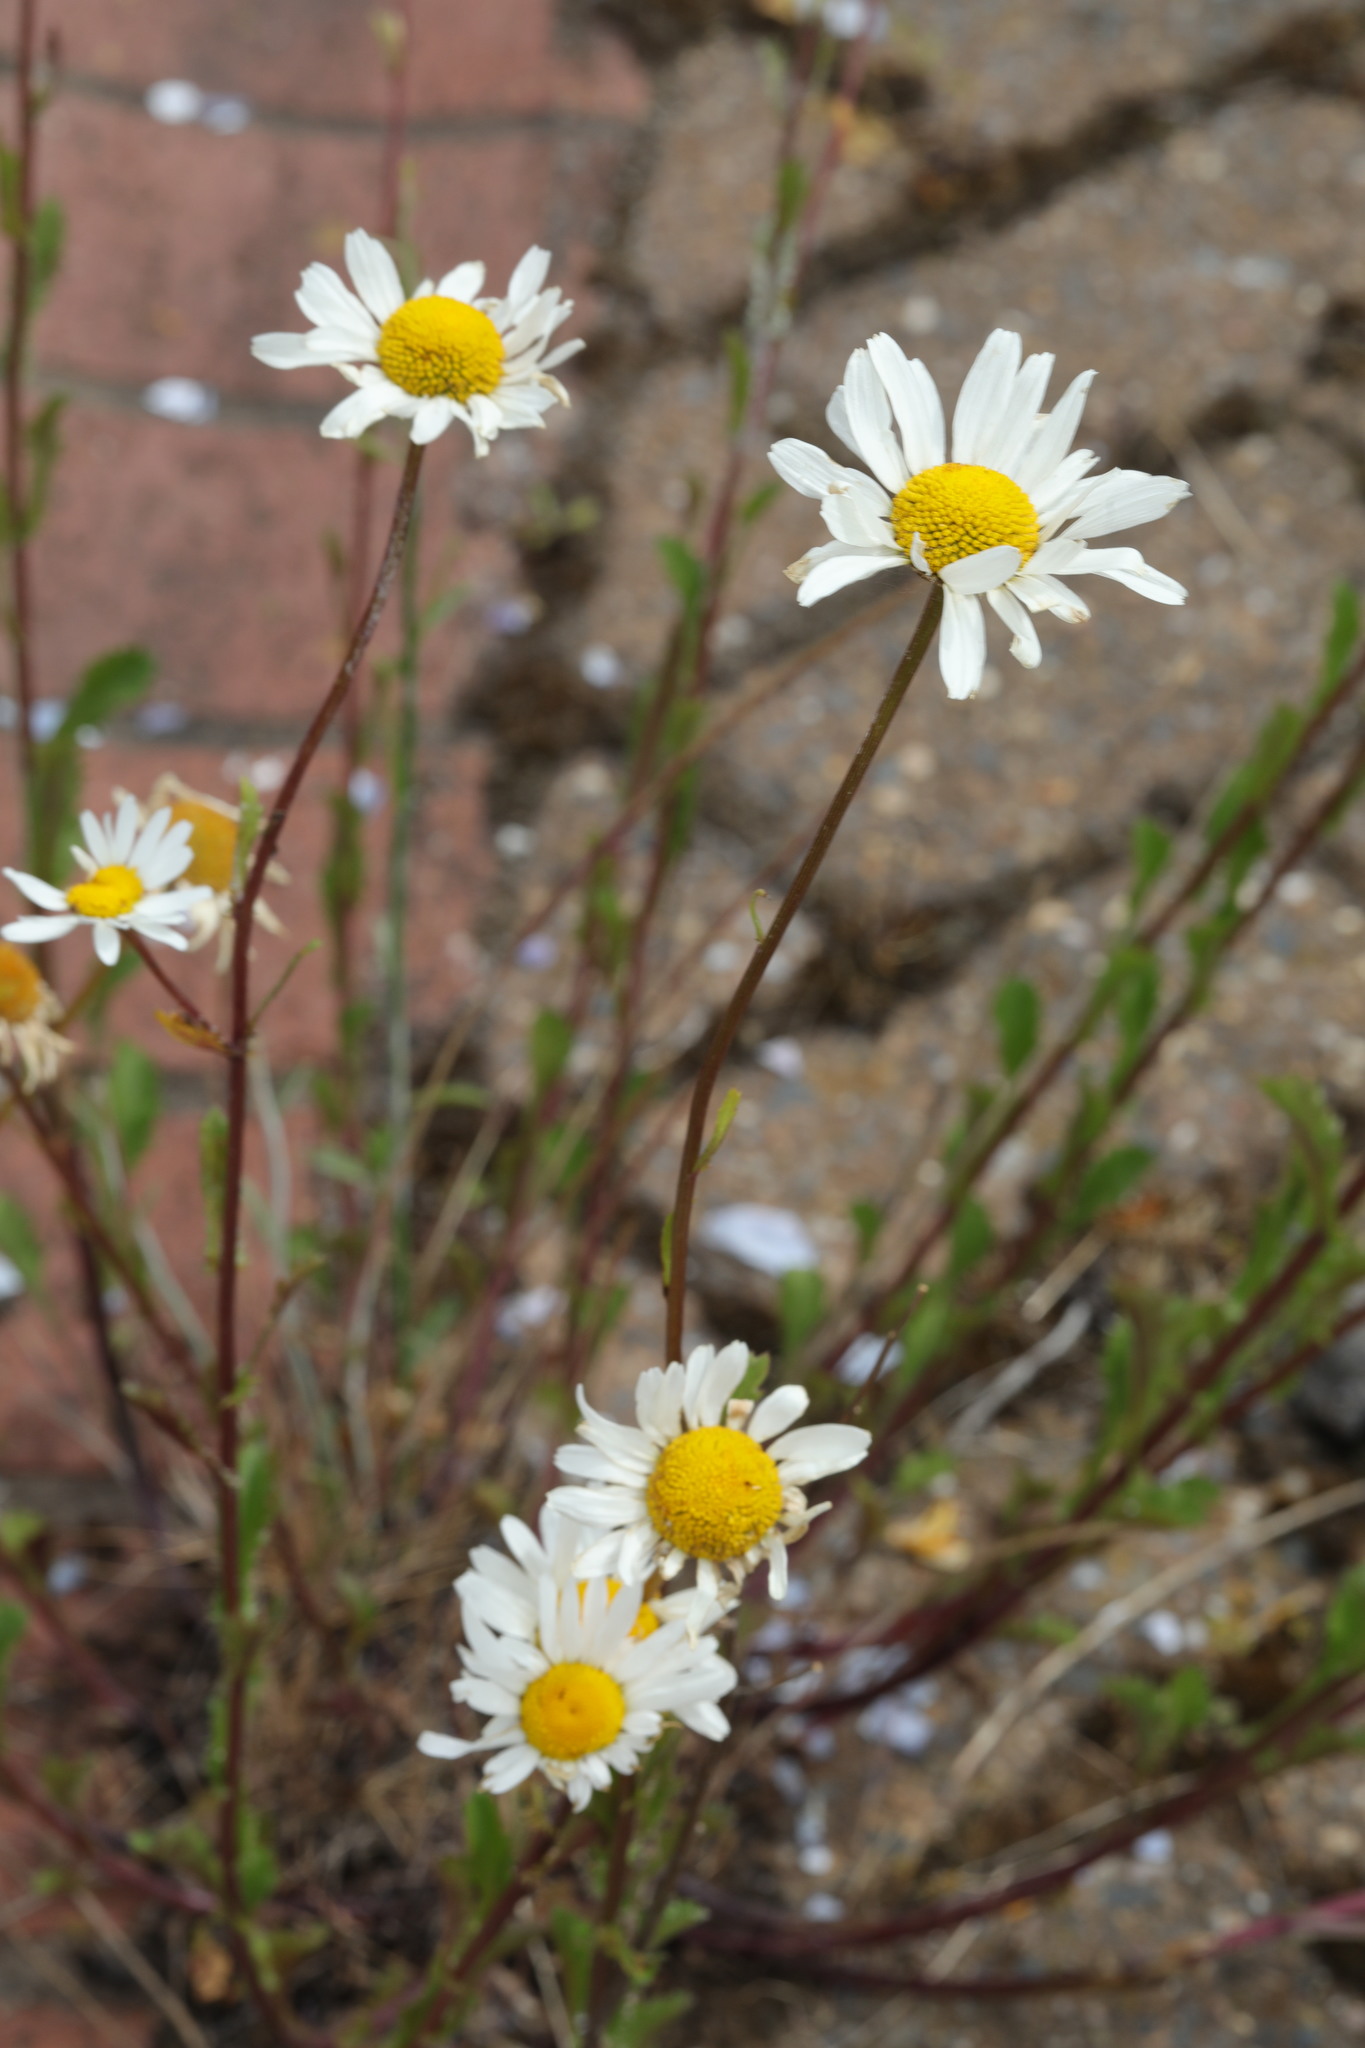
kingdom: Plantae
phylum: Tracheophyta
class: Magnoliopsida
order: Asterales
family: Asteraceae
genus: Leucanthemum
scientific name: Leucanthemum vulgare
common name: Oxeye daisy
